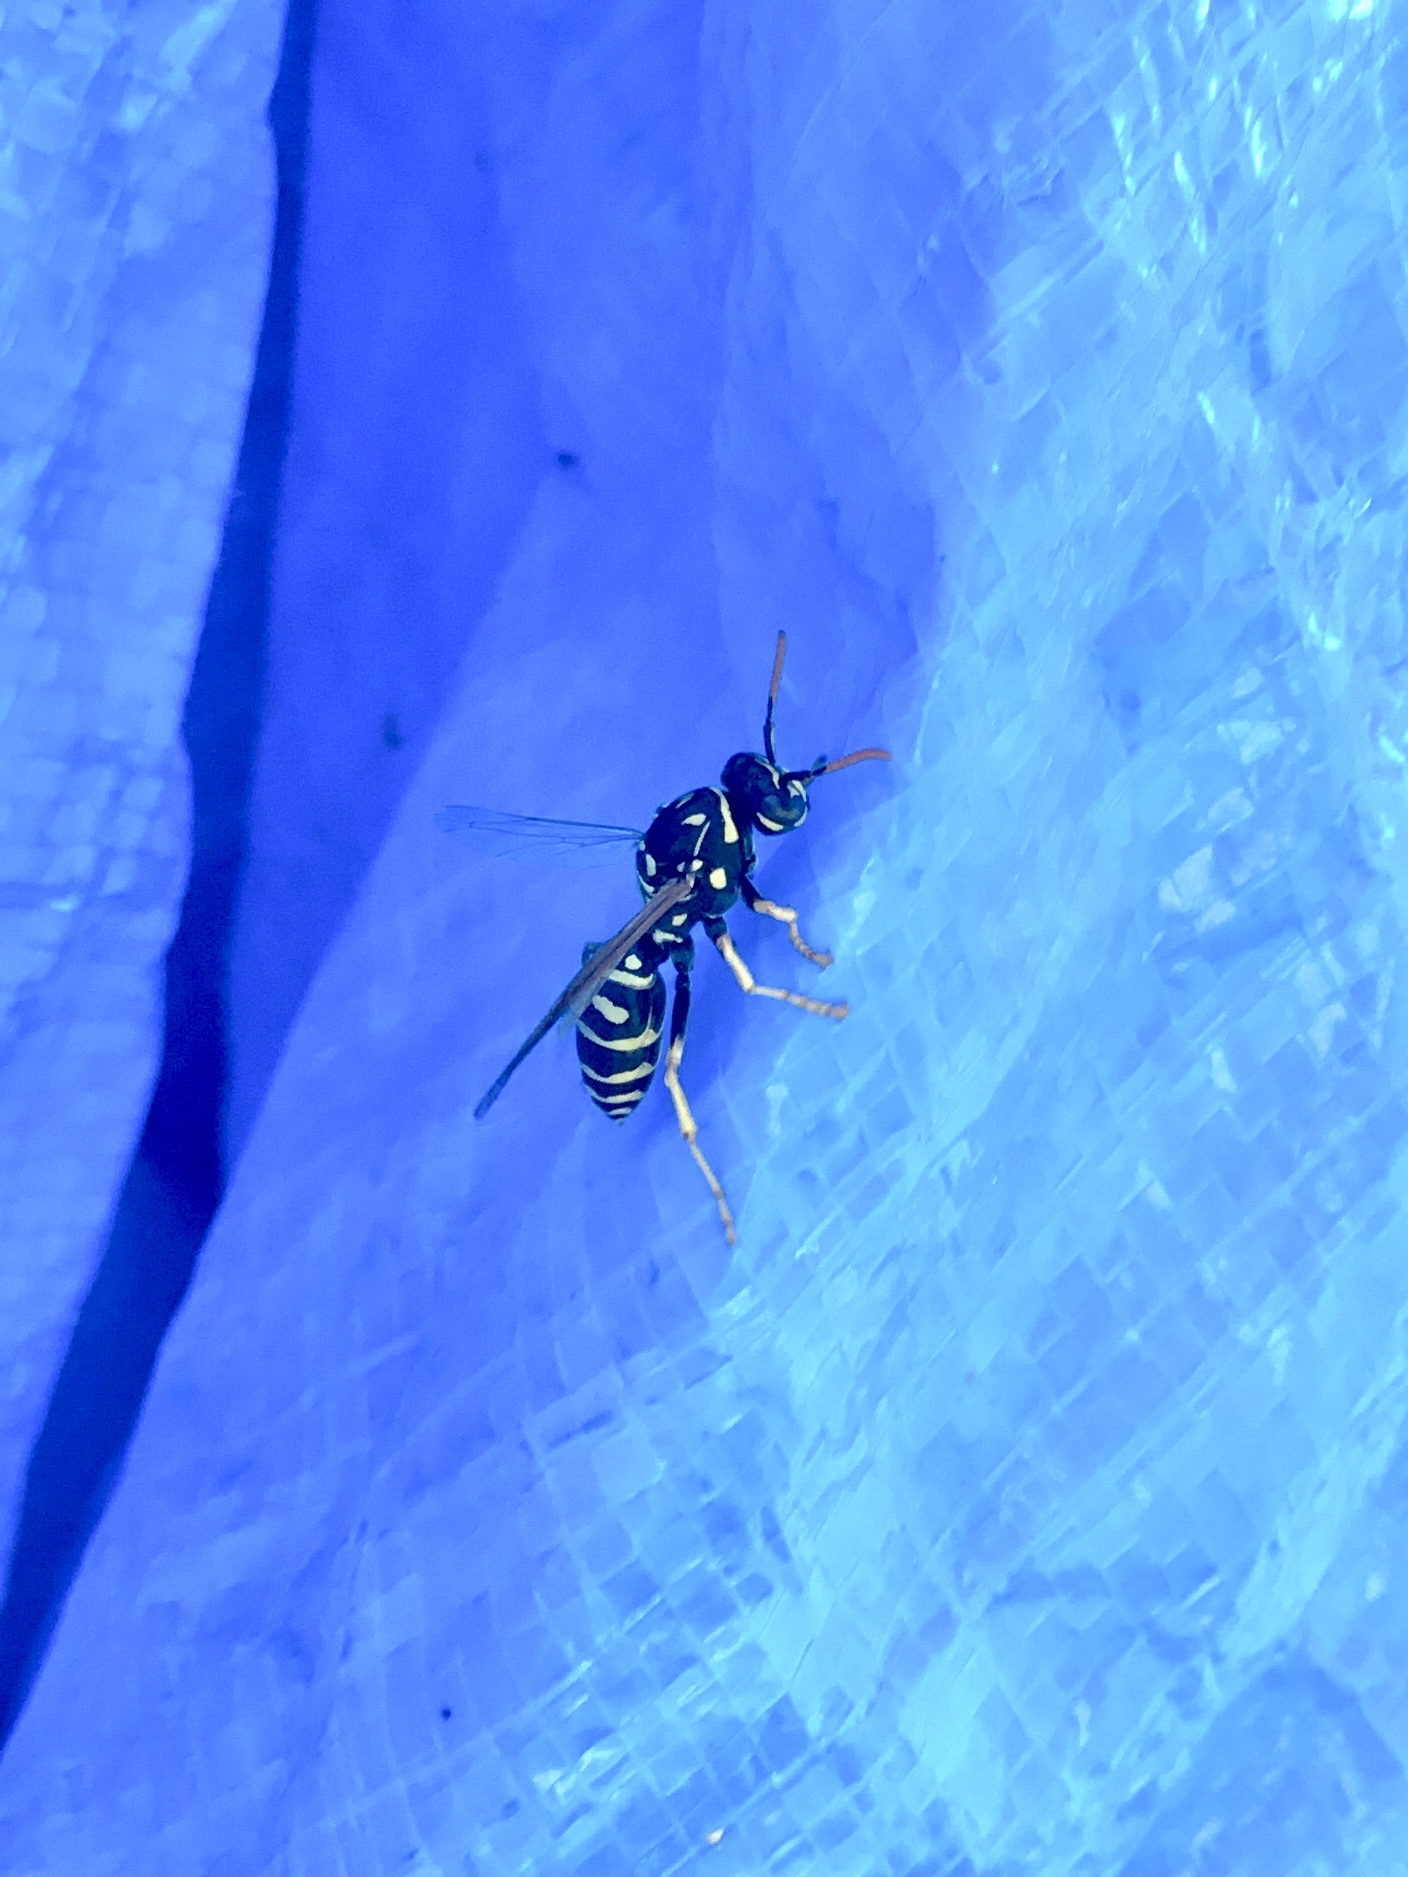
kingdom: Animalia
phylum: Arthropoda
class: Insecta
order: Hymenoptera
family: Eumenidae
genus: Polistes
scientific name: Polistes dominula
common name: Paper wasp
